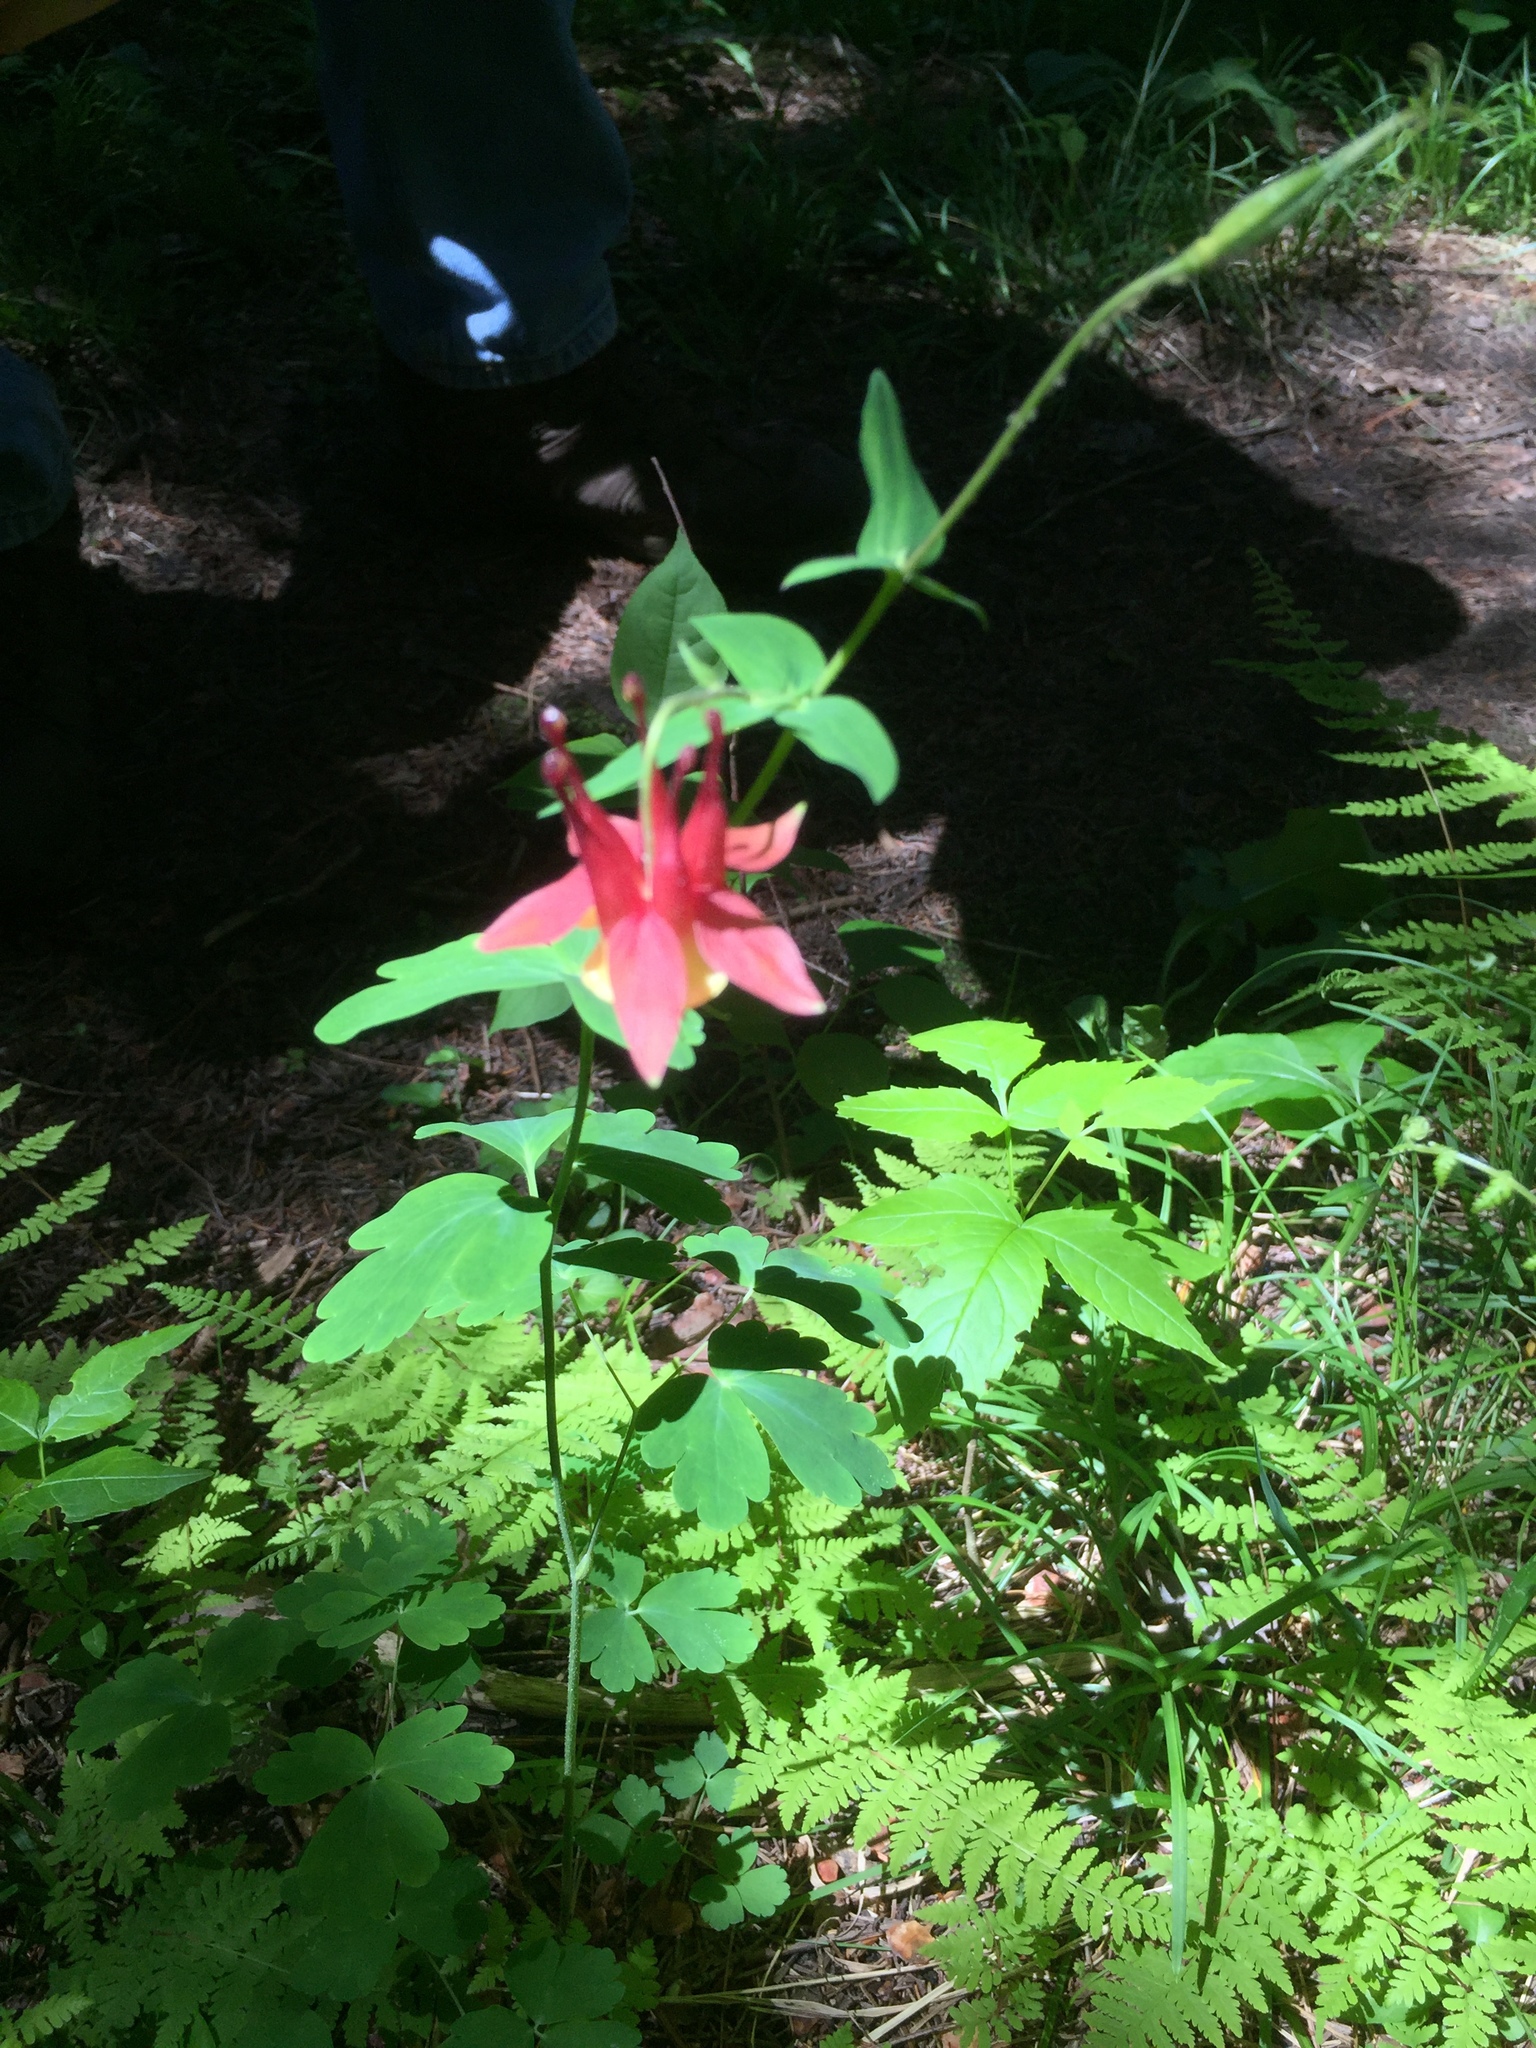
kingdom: Plantae
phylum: Tracheophyta
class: Magnoliopsida
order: Ranunculales
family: Ranunculaceae
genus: Aquilegia
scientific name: Aquilegia canadensis
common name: American columbine
